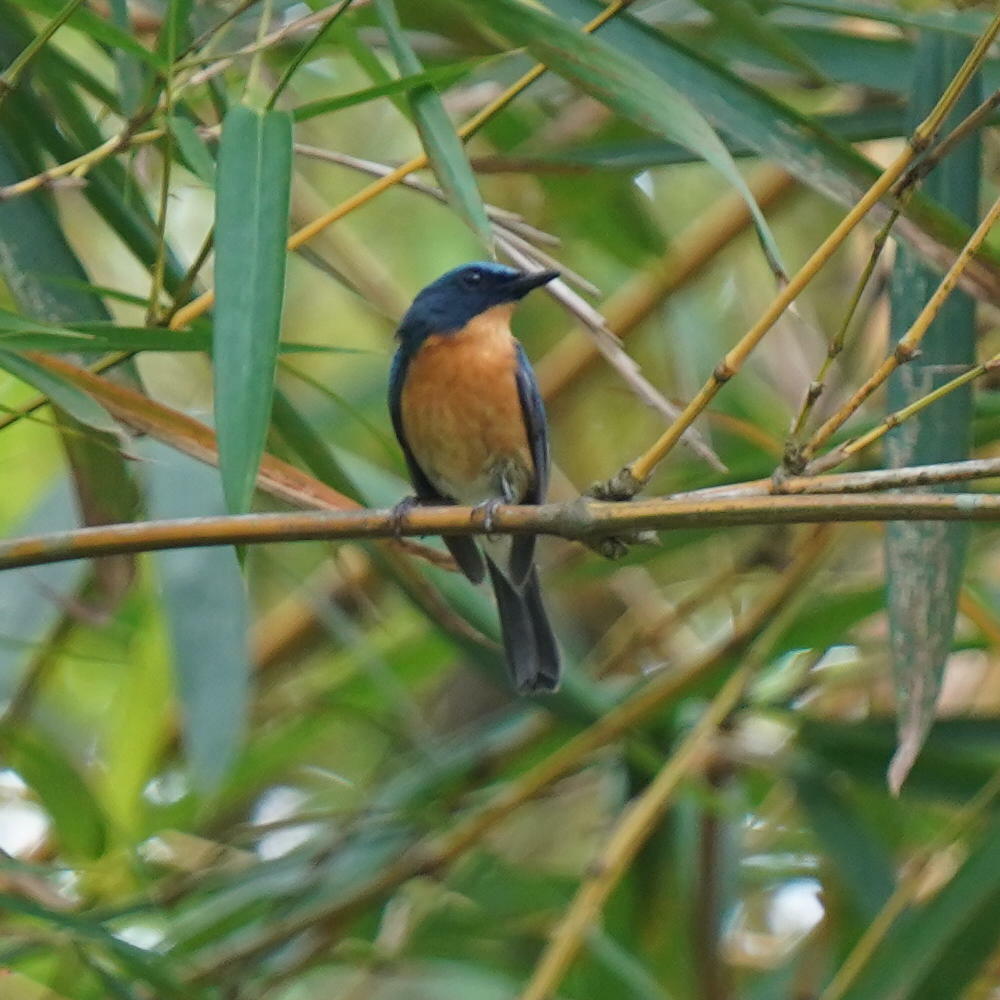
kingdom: Animalia
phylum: Chordata
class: Aves
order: Passeriformes
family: Muscicapidae
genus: Cyornis
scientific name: Cyornis tickelliae
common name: Tickell's blue flycatcher
